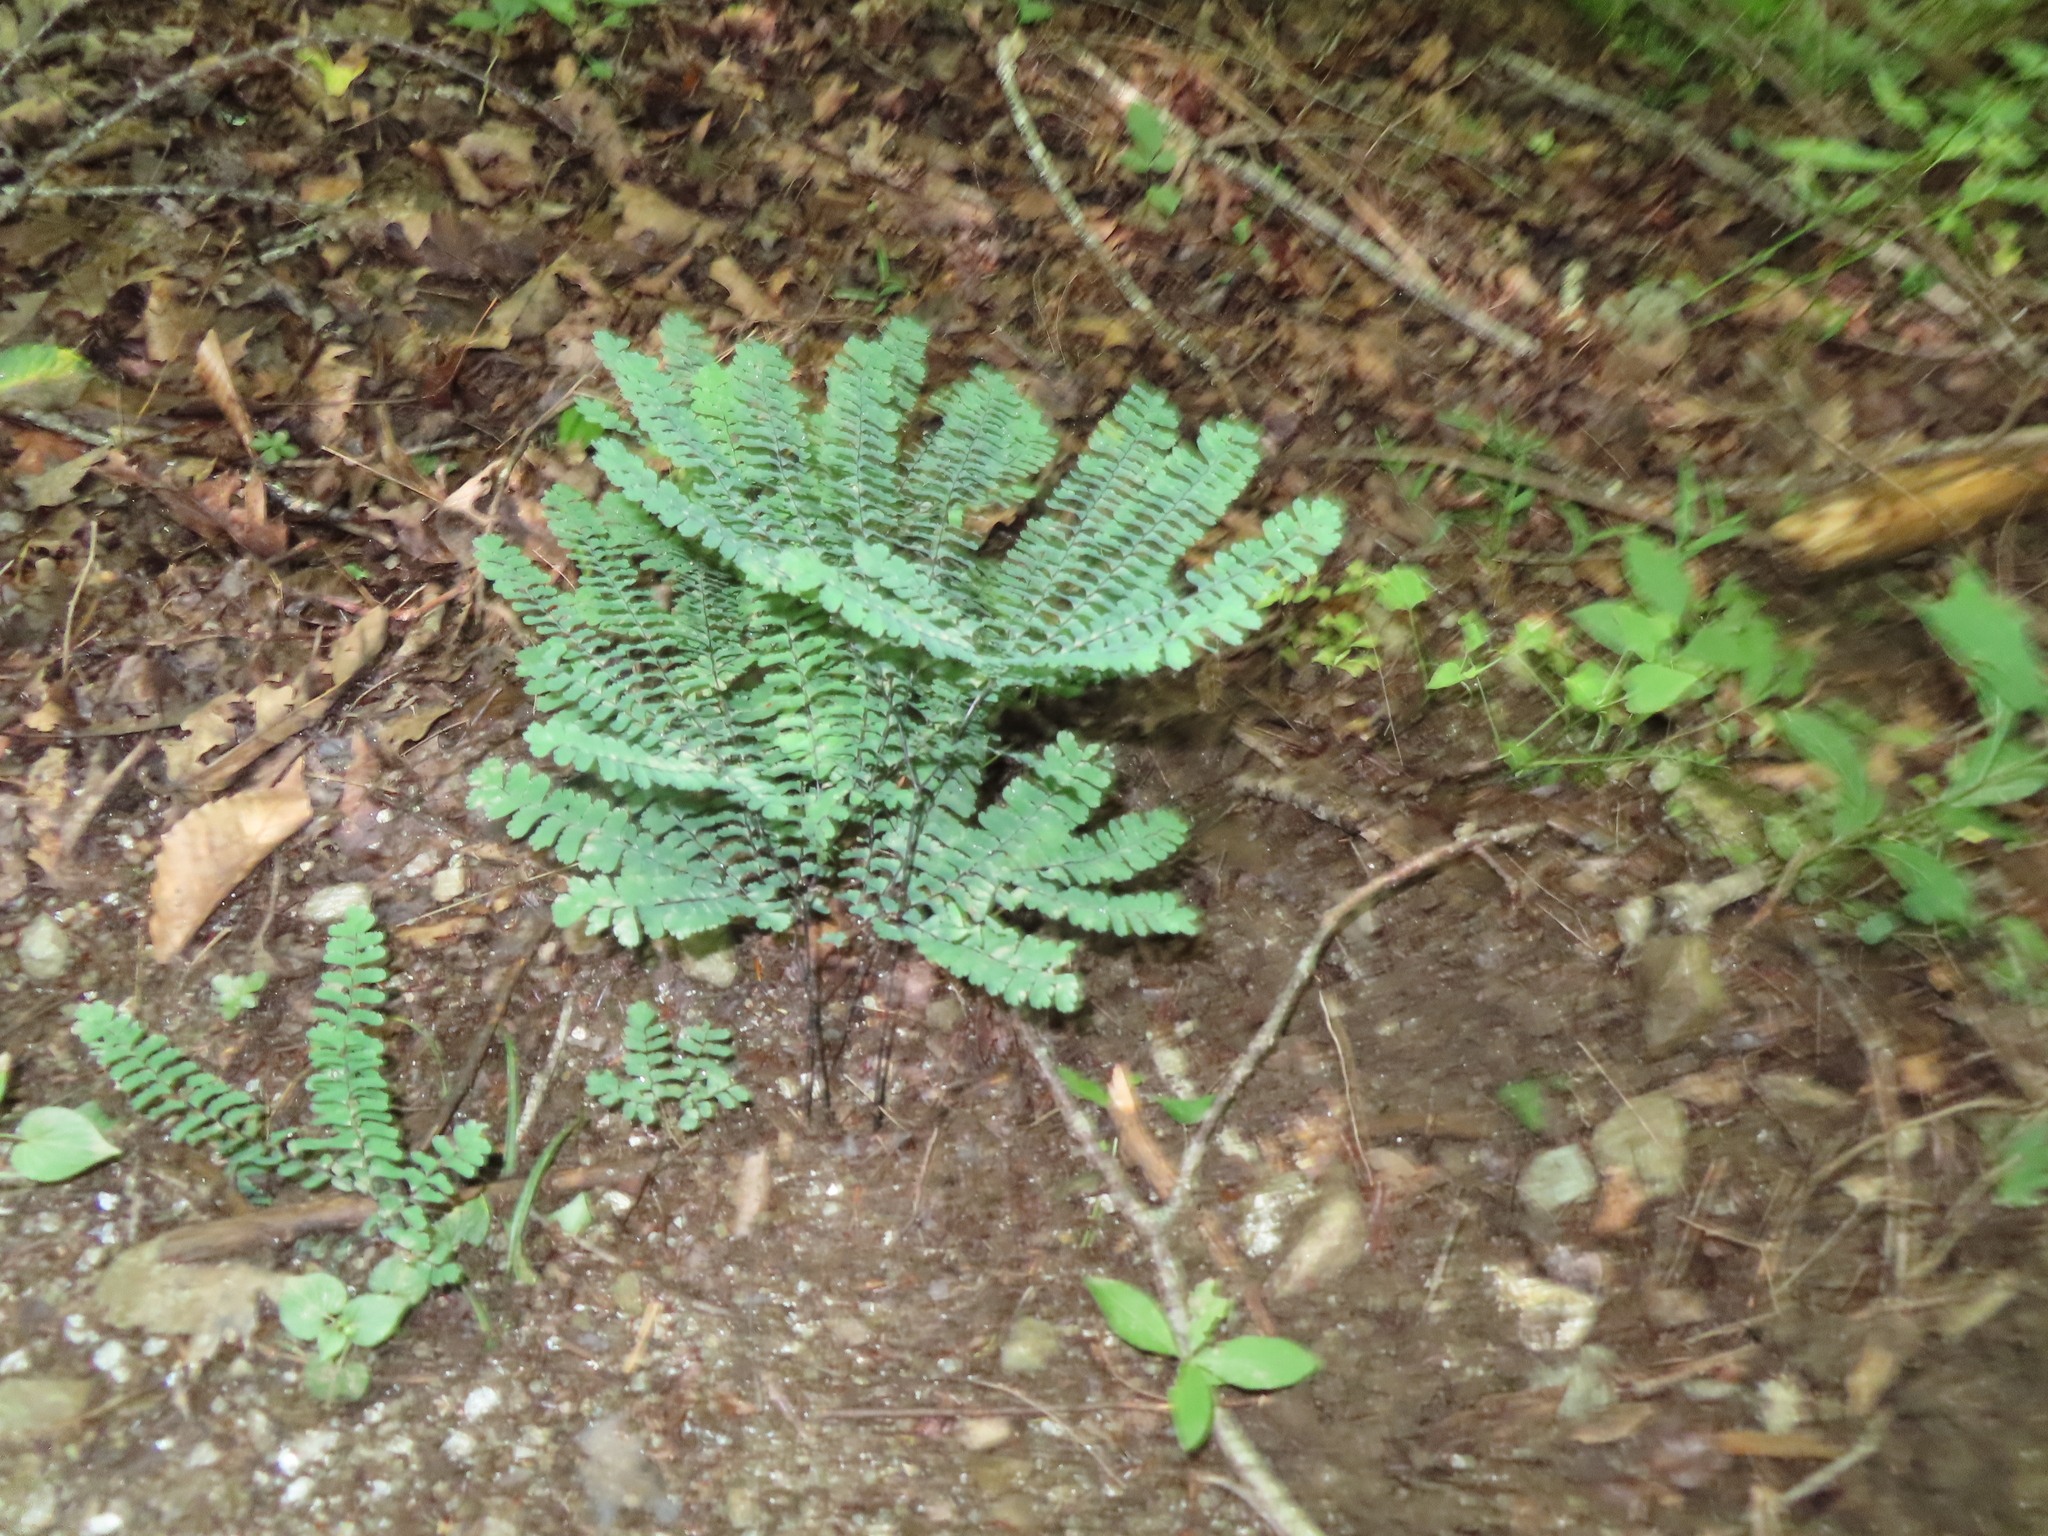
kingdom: Plantae
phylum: Tracheophyta
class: Polypodiopsida
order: Polypodiales
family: Pteridaceae
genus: Adiantum
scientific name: Adiantum pedatum
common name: Five-finger fern
